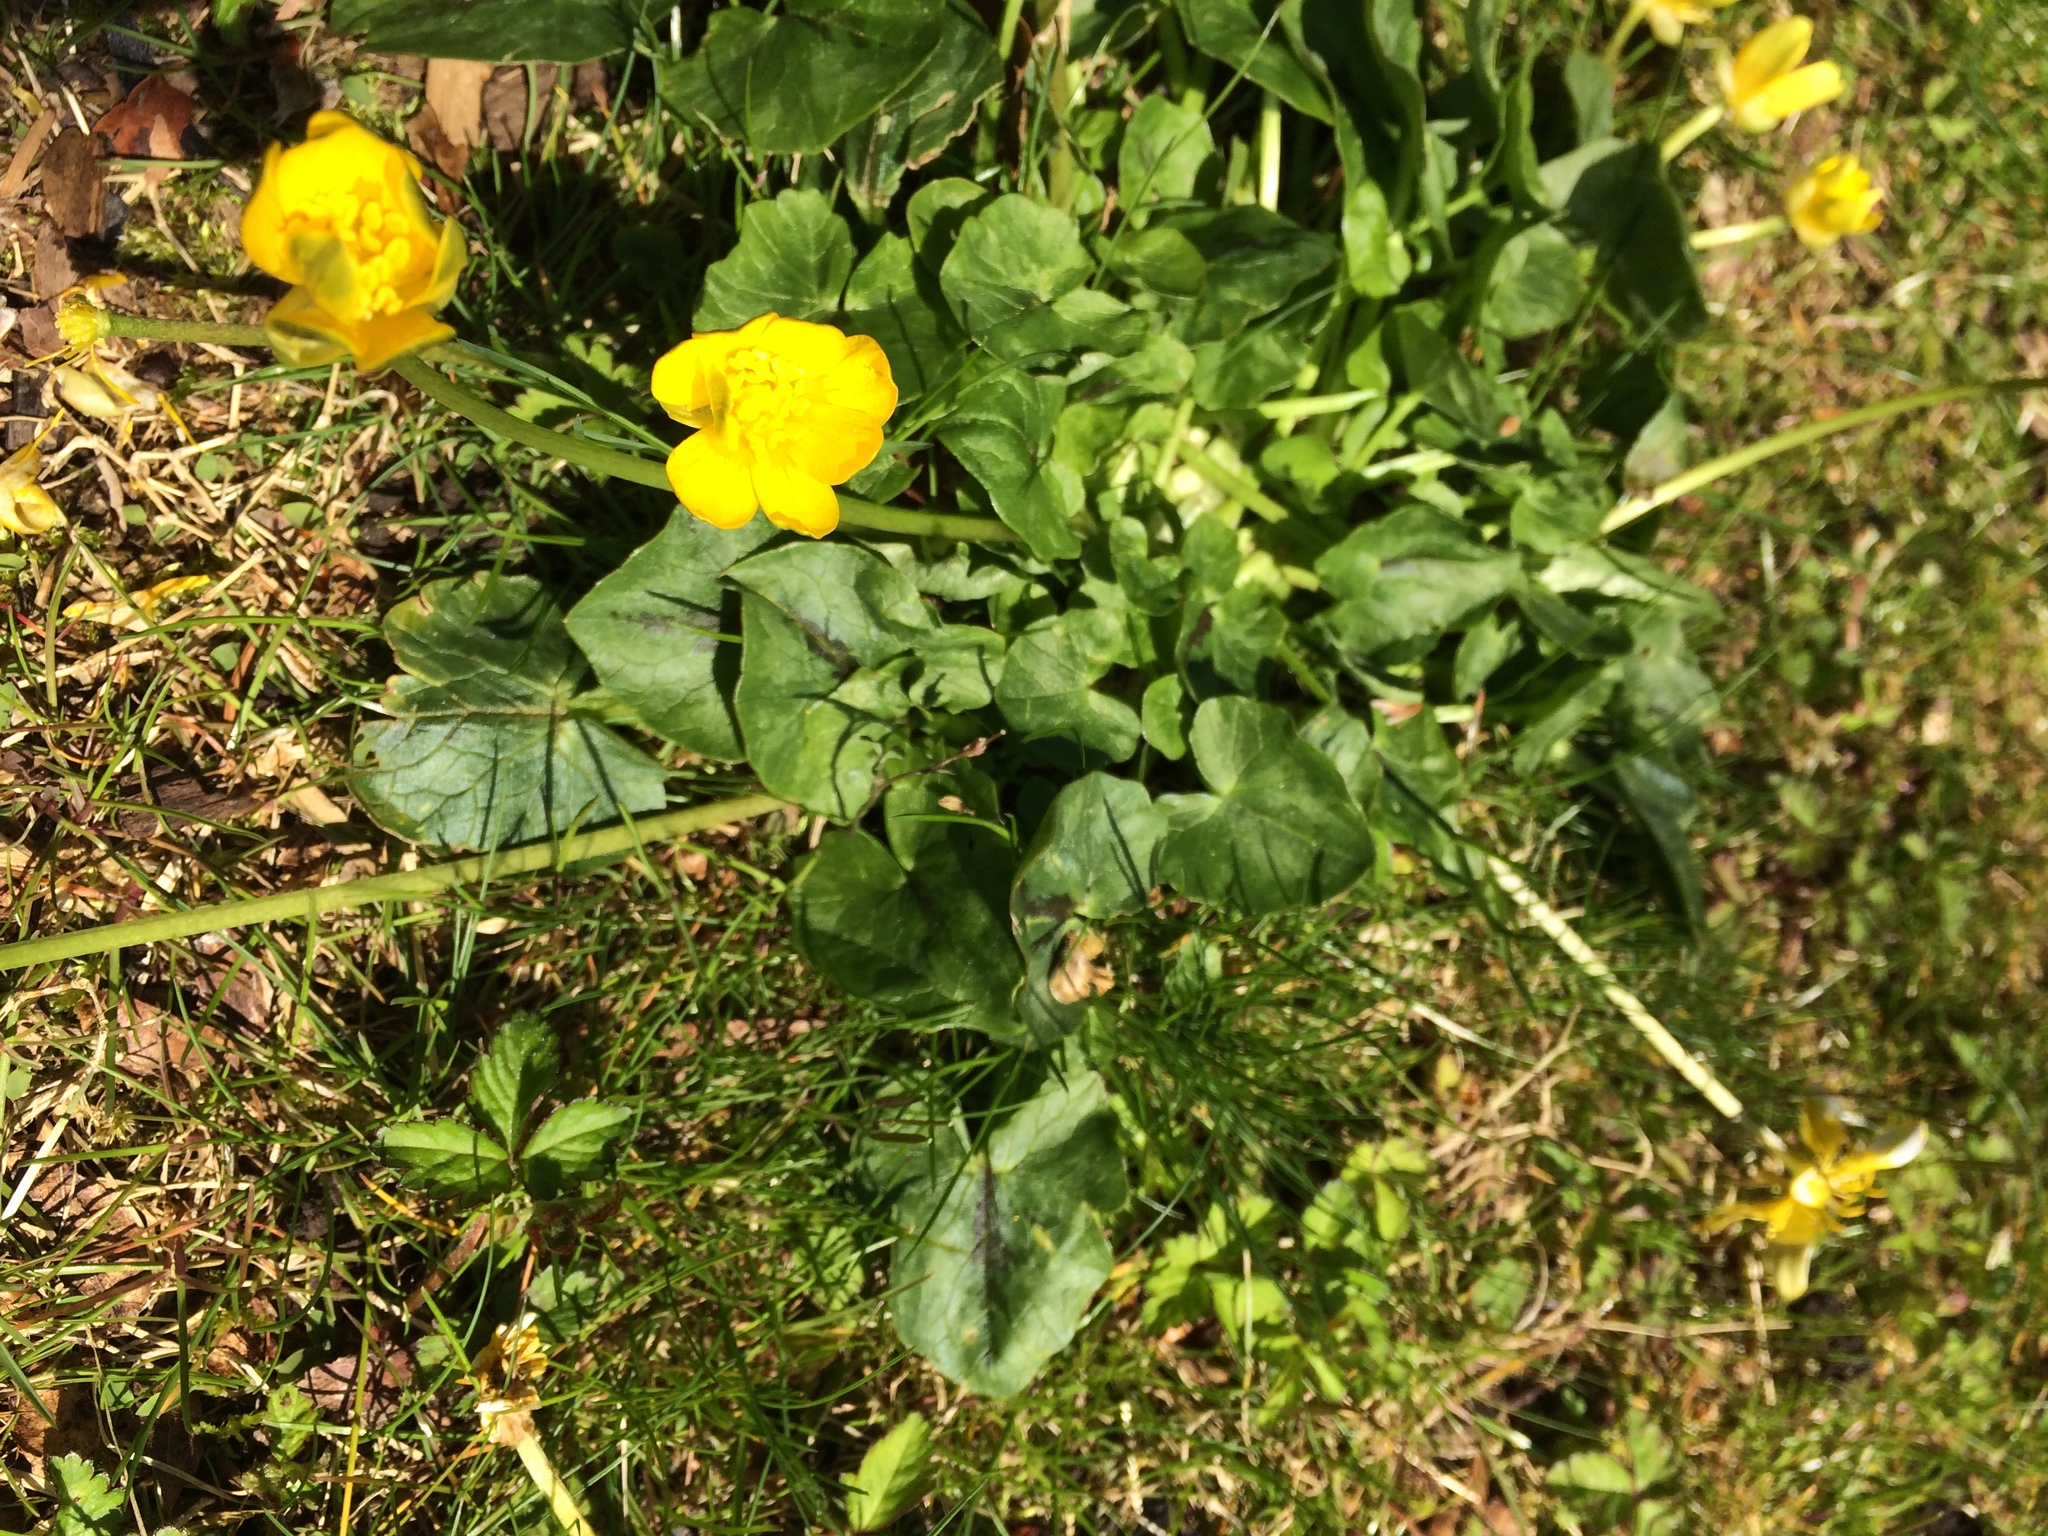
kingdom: Plantae
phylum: Tracheophyta
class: Magnoliopsida
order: Ranunculales
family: Ranunculaceae
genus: Ficaria
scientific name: Ficaria verna
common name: Lesser celandine
